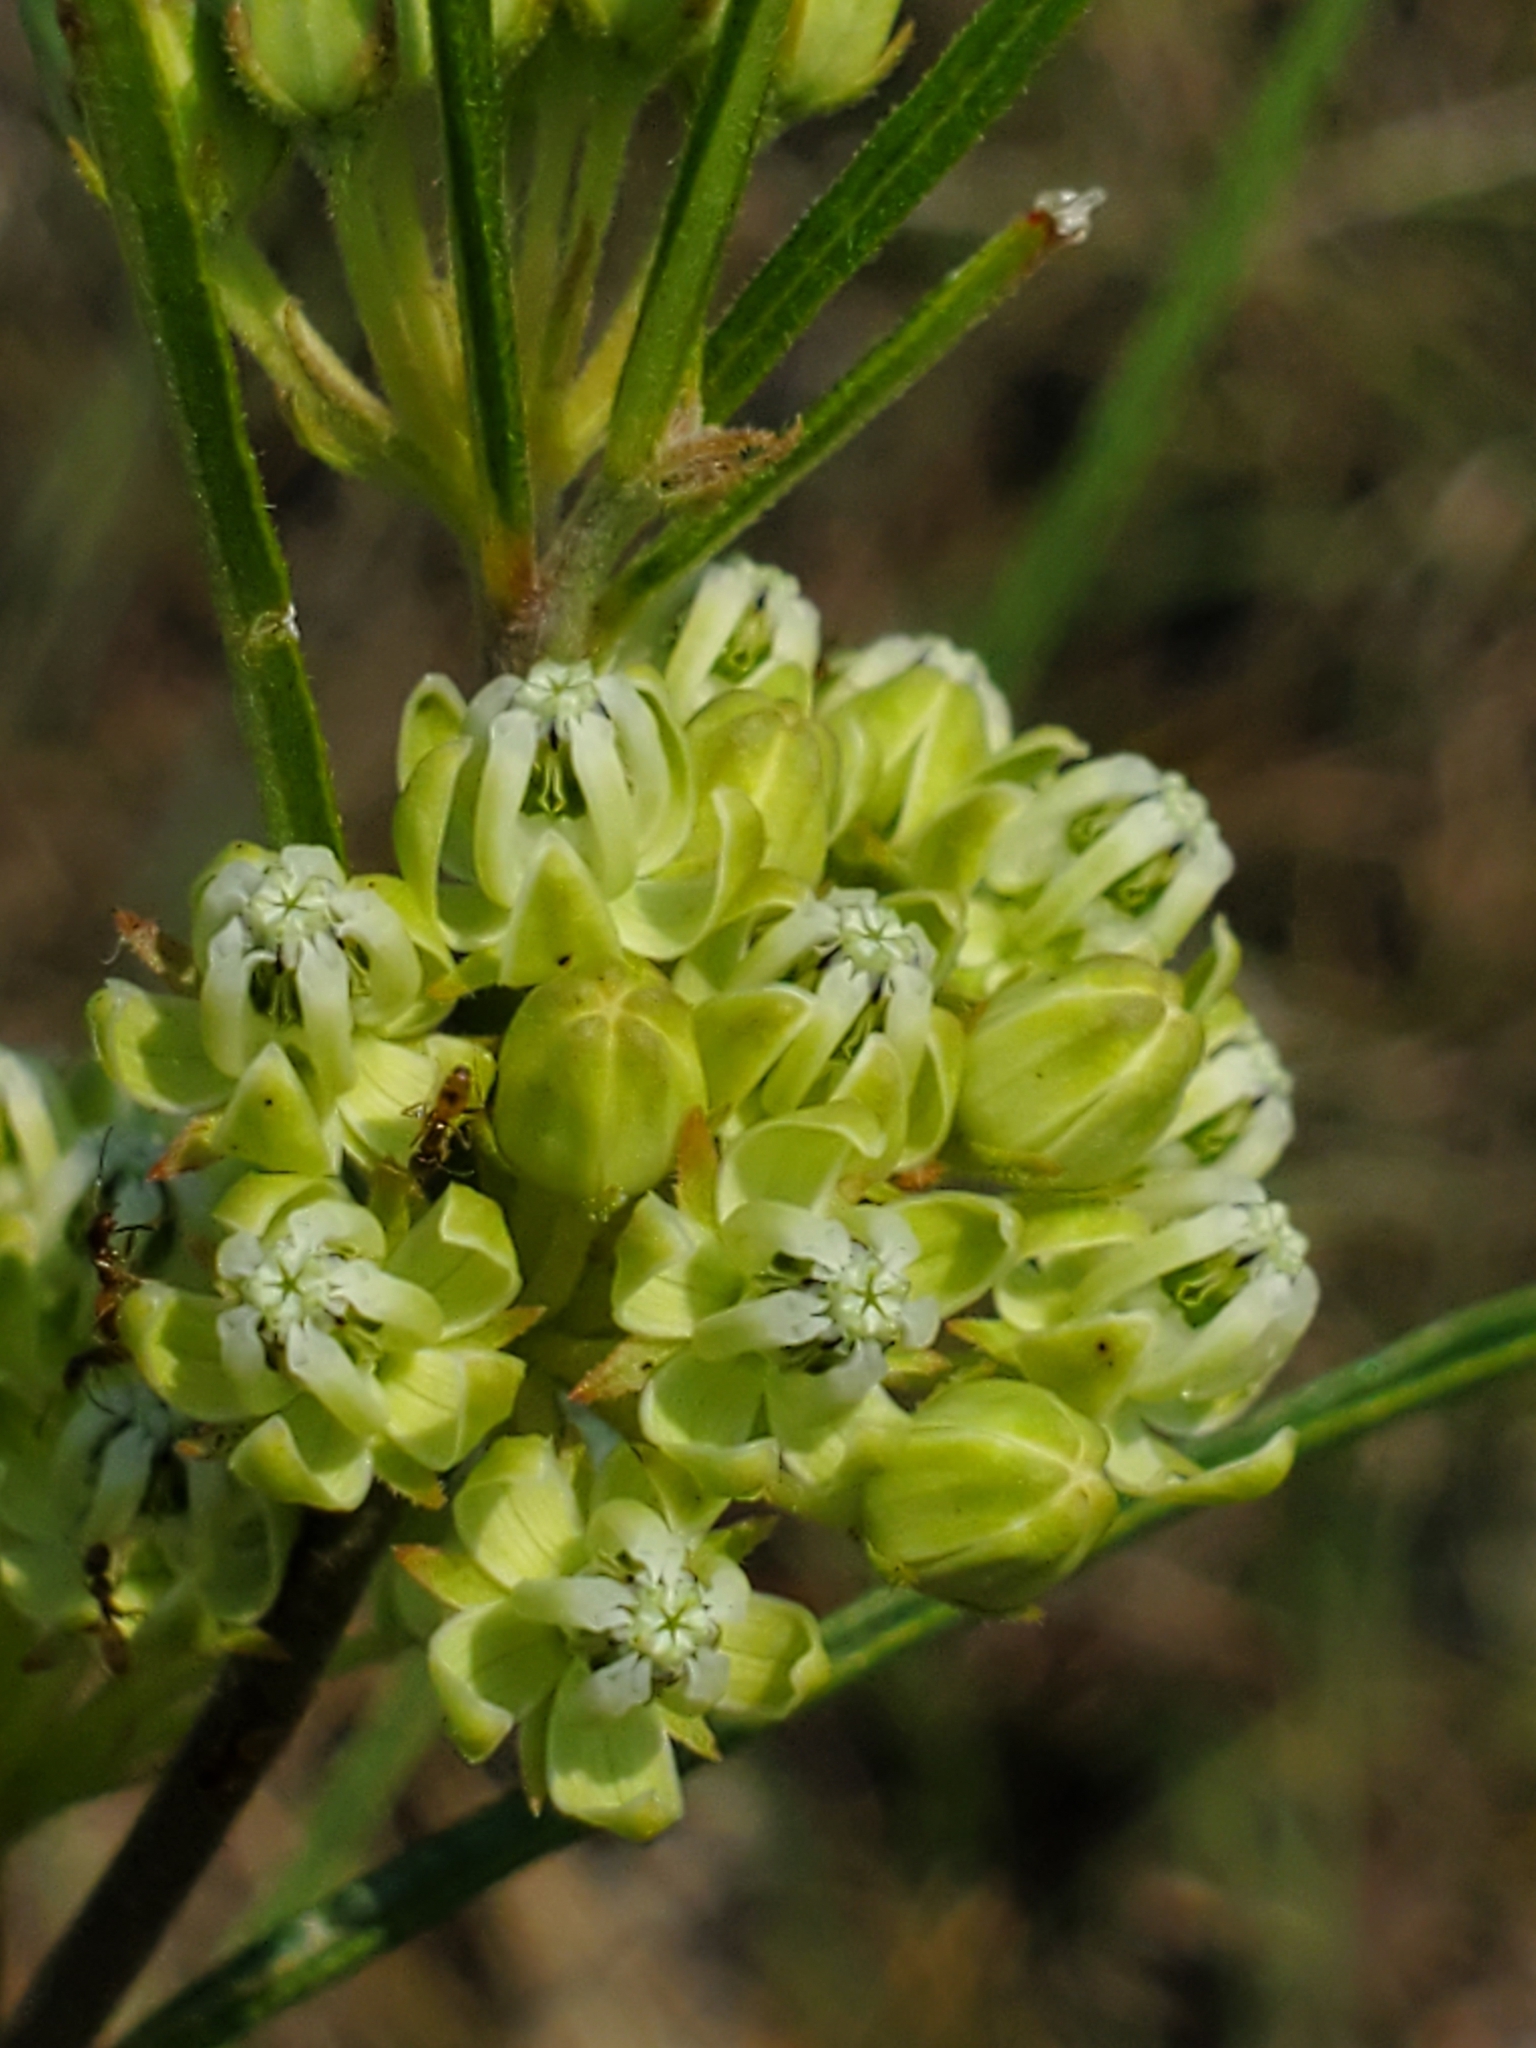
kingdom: Plantae
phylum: Tracheophyta
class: Magnoliopsida
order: Gentianales
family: Apocynaceae
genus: Asclepias
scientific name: Asclepias stenophylla
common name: Narrow-leaf milkweed
